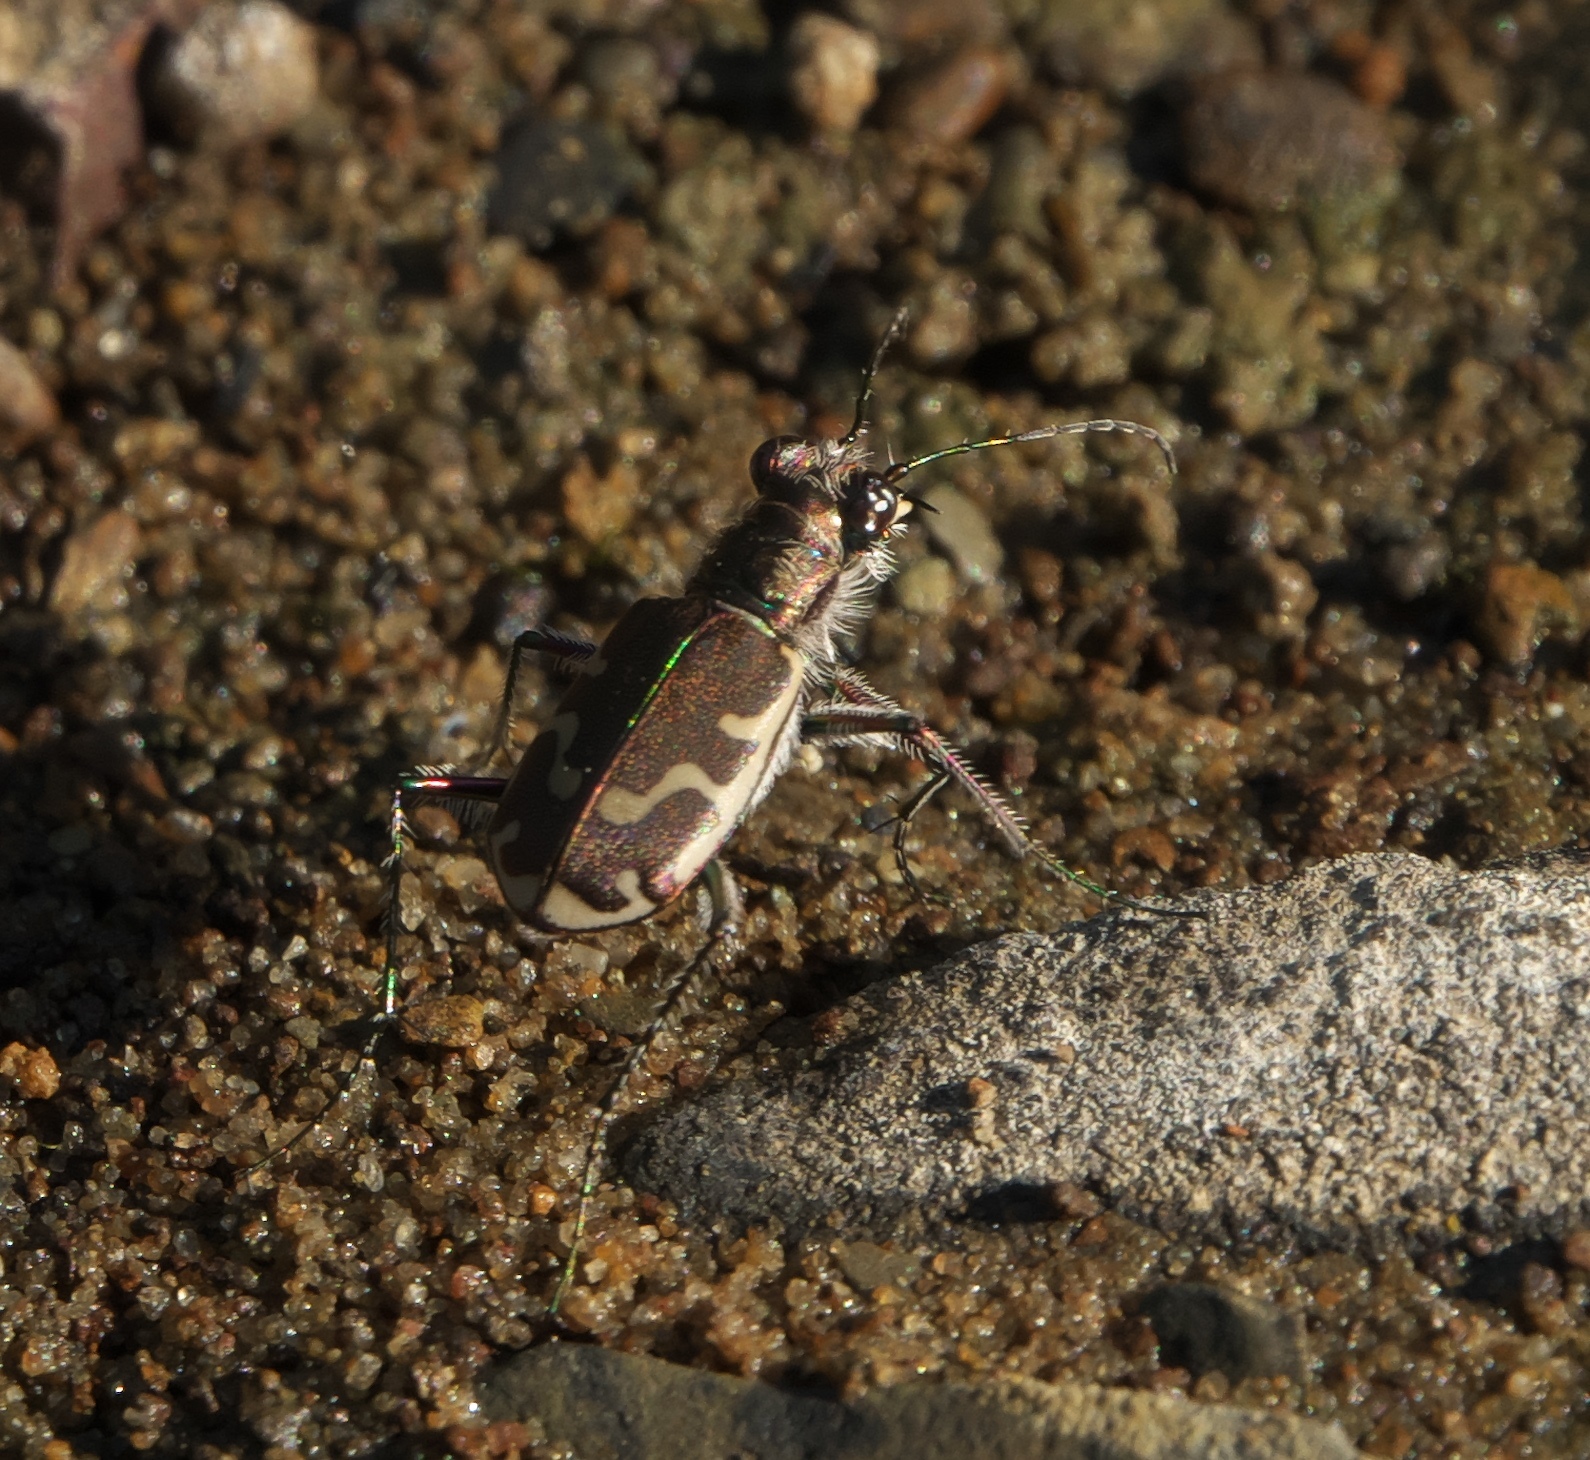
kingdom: Animalia
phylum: Arthropoda
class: Insecta
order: Coleoptera
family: Carabidae
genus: Cicindela
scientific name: Cicindela repanda
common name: Bronzed tiger beetle
